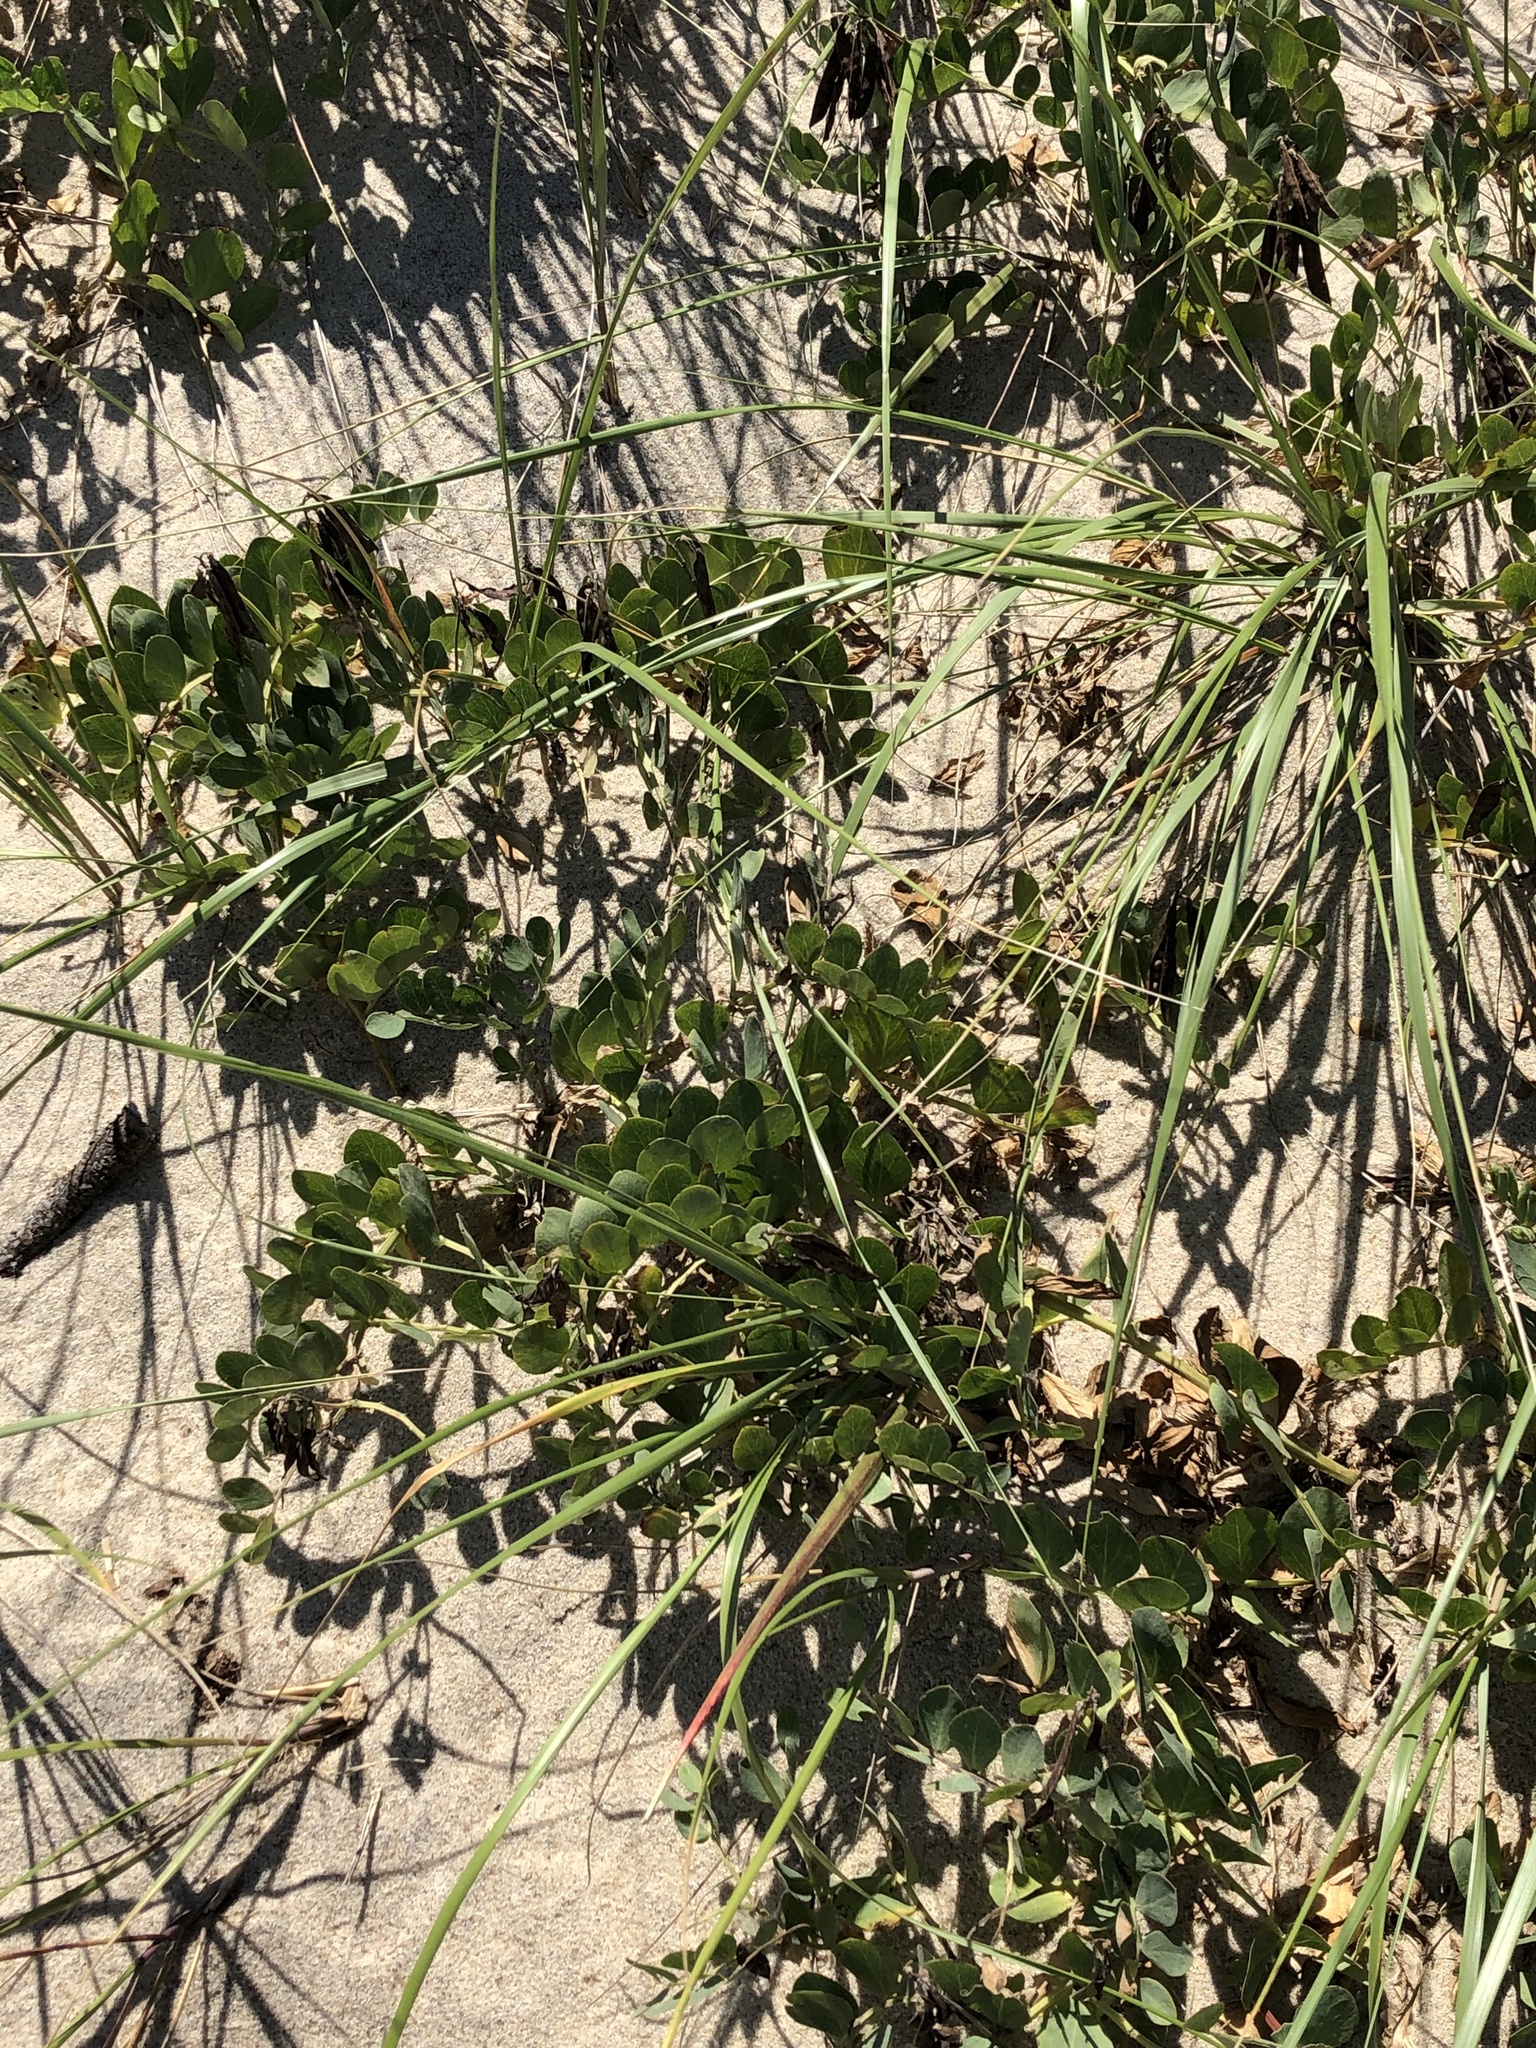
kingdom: Plantae
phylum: Tracheophyta
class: Magnoliopsida
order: Fabales
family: Fabaceae
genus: Lathyrus
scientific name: Lathyrus japonicus
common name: Sea pea
